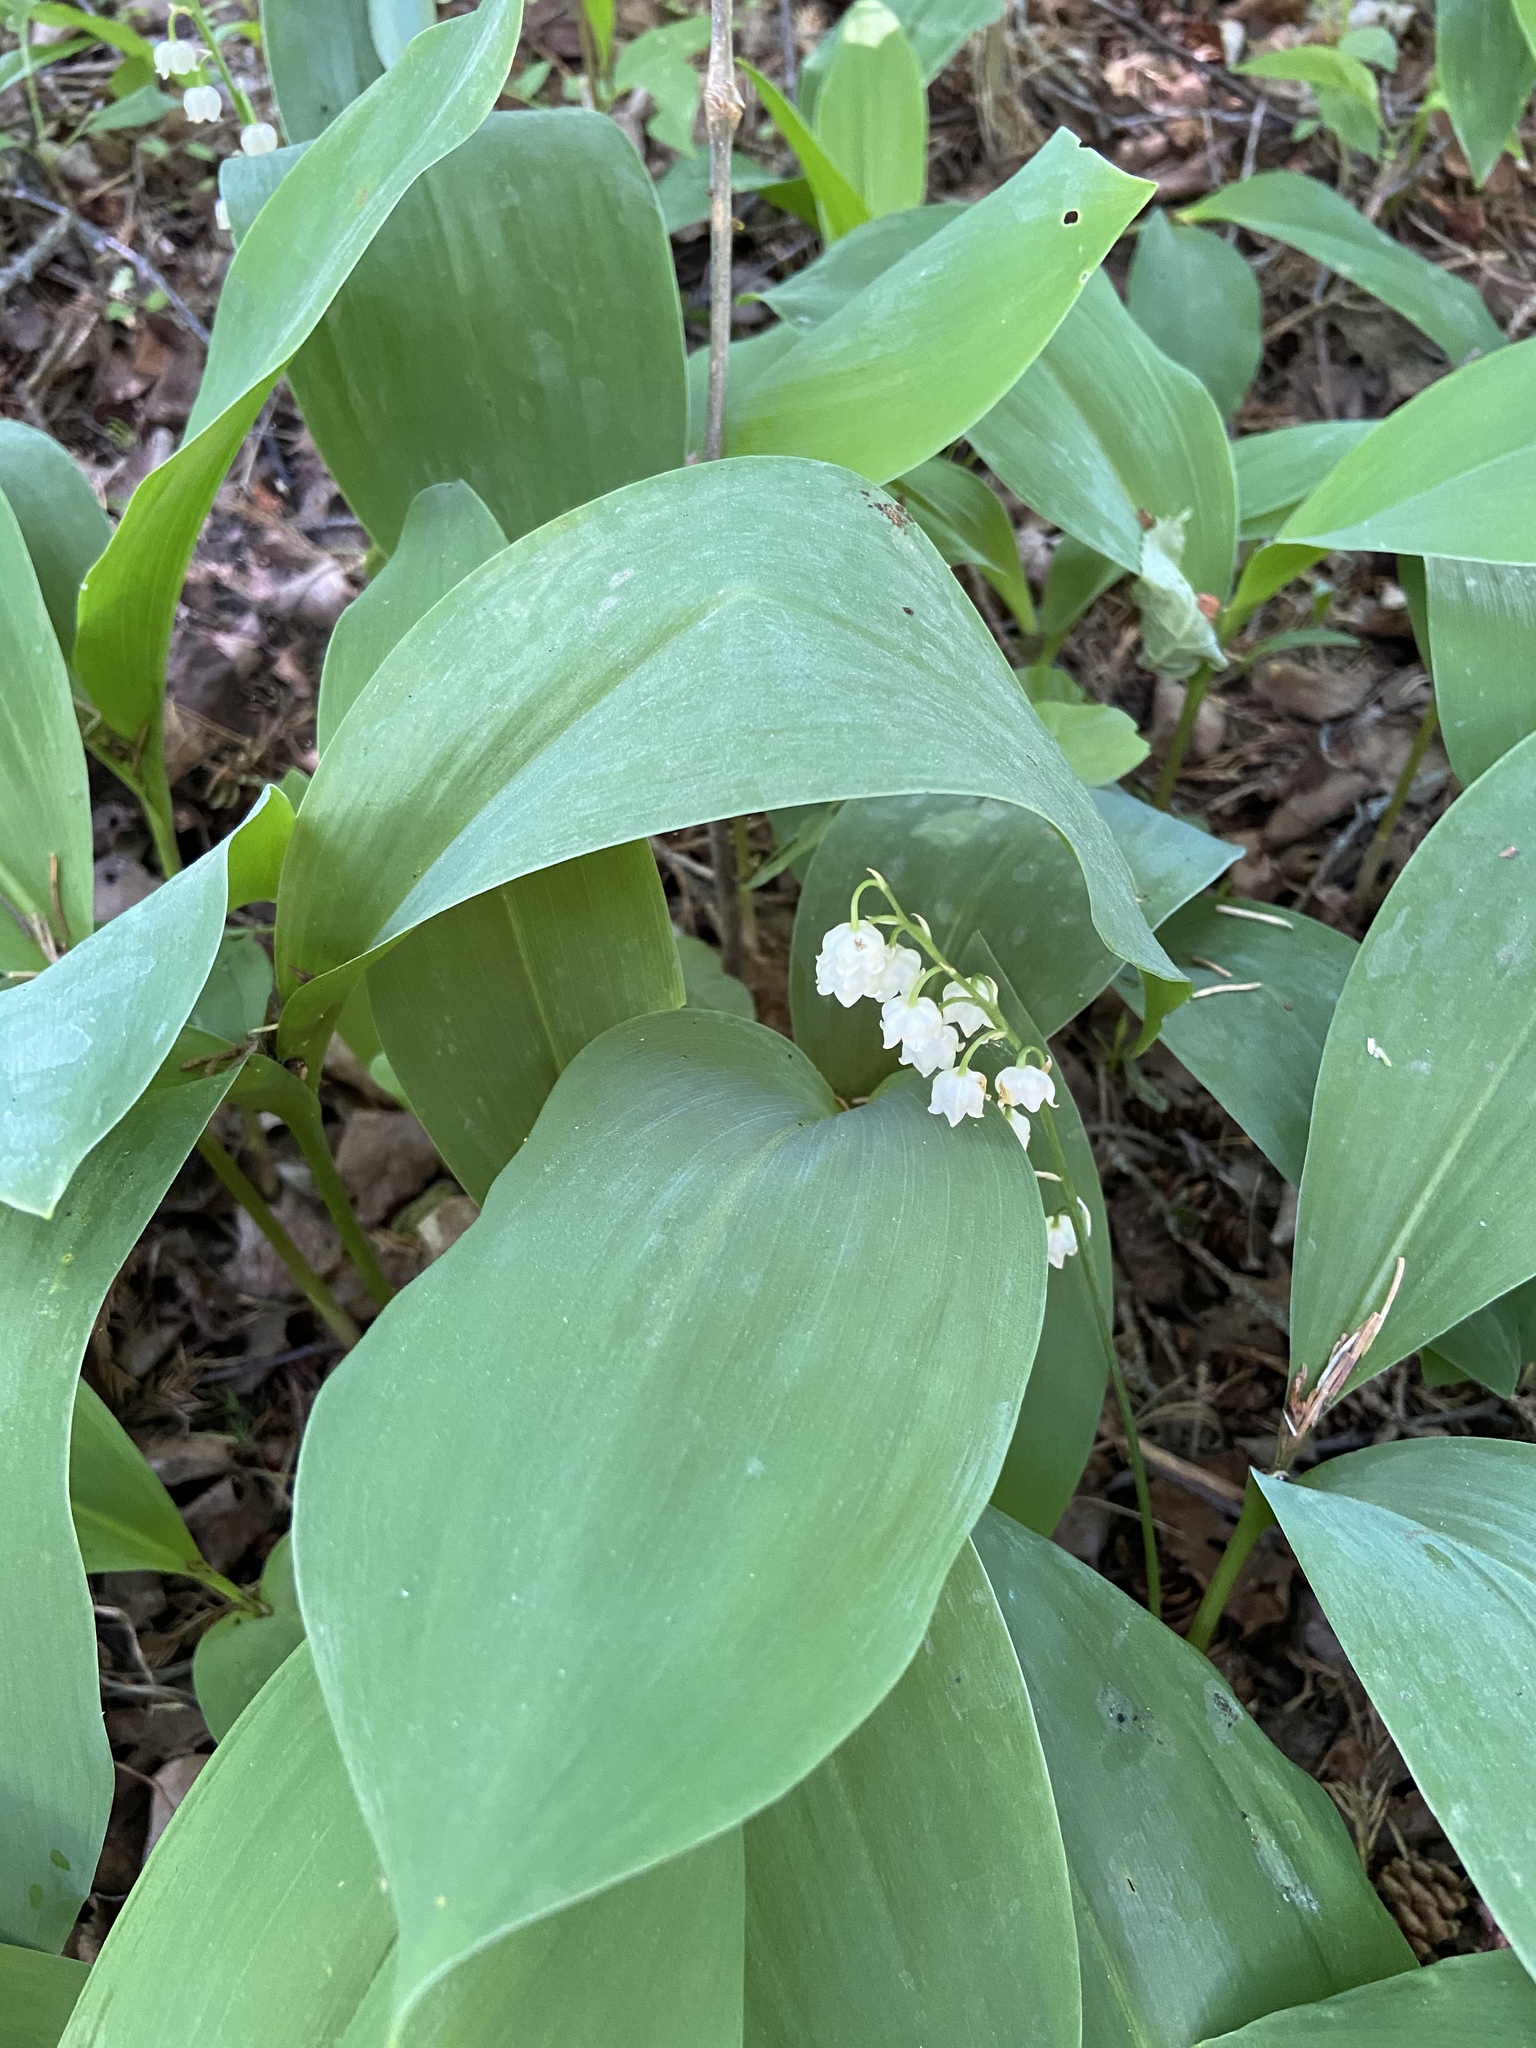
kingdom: Plantae
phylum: Tracheophyta
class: Liliopsida
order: Asparagales
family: Asparagaceae
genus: Convallaria
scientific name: Convallaria majalis
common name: Lily-of-the-valley
